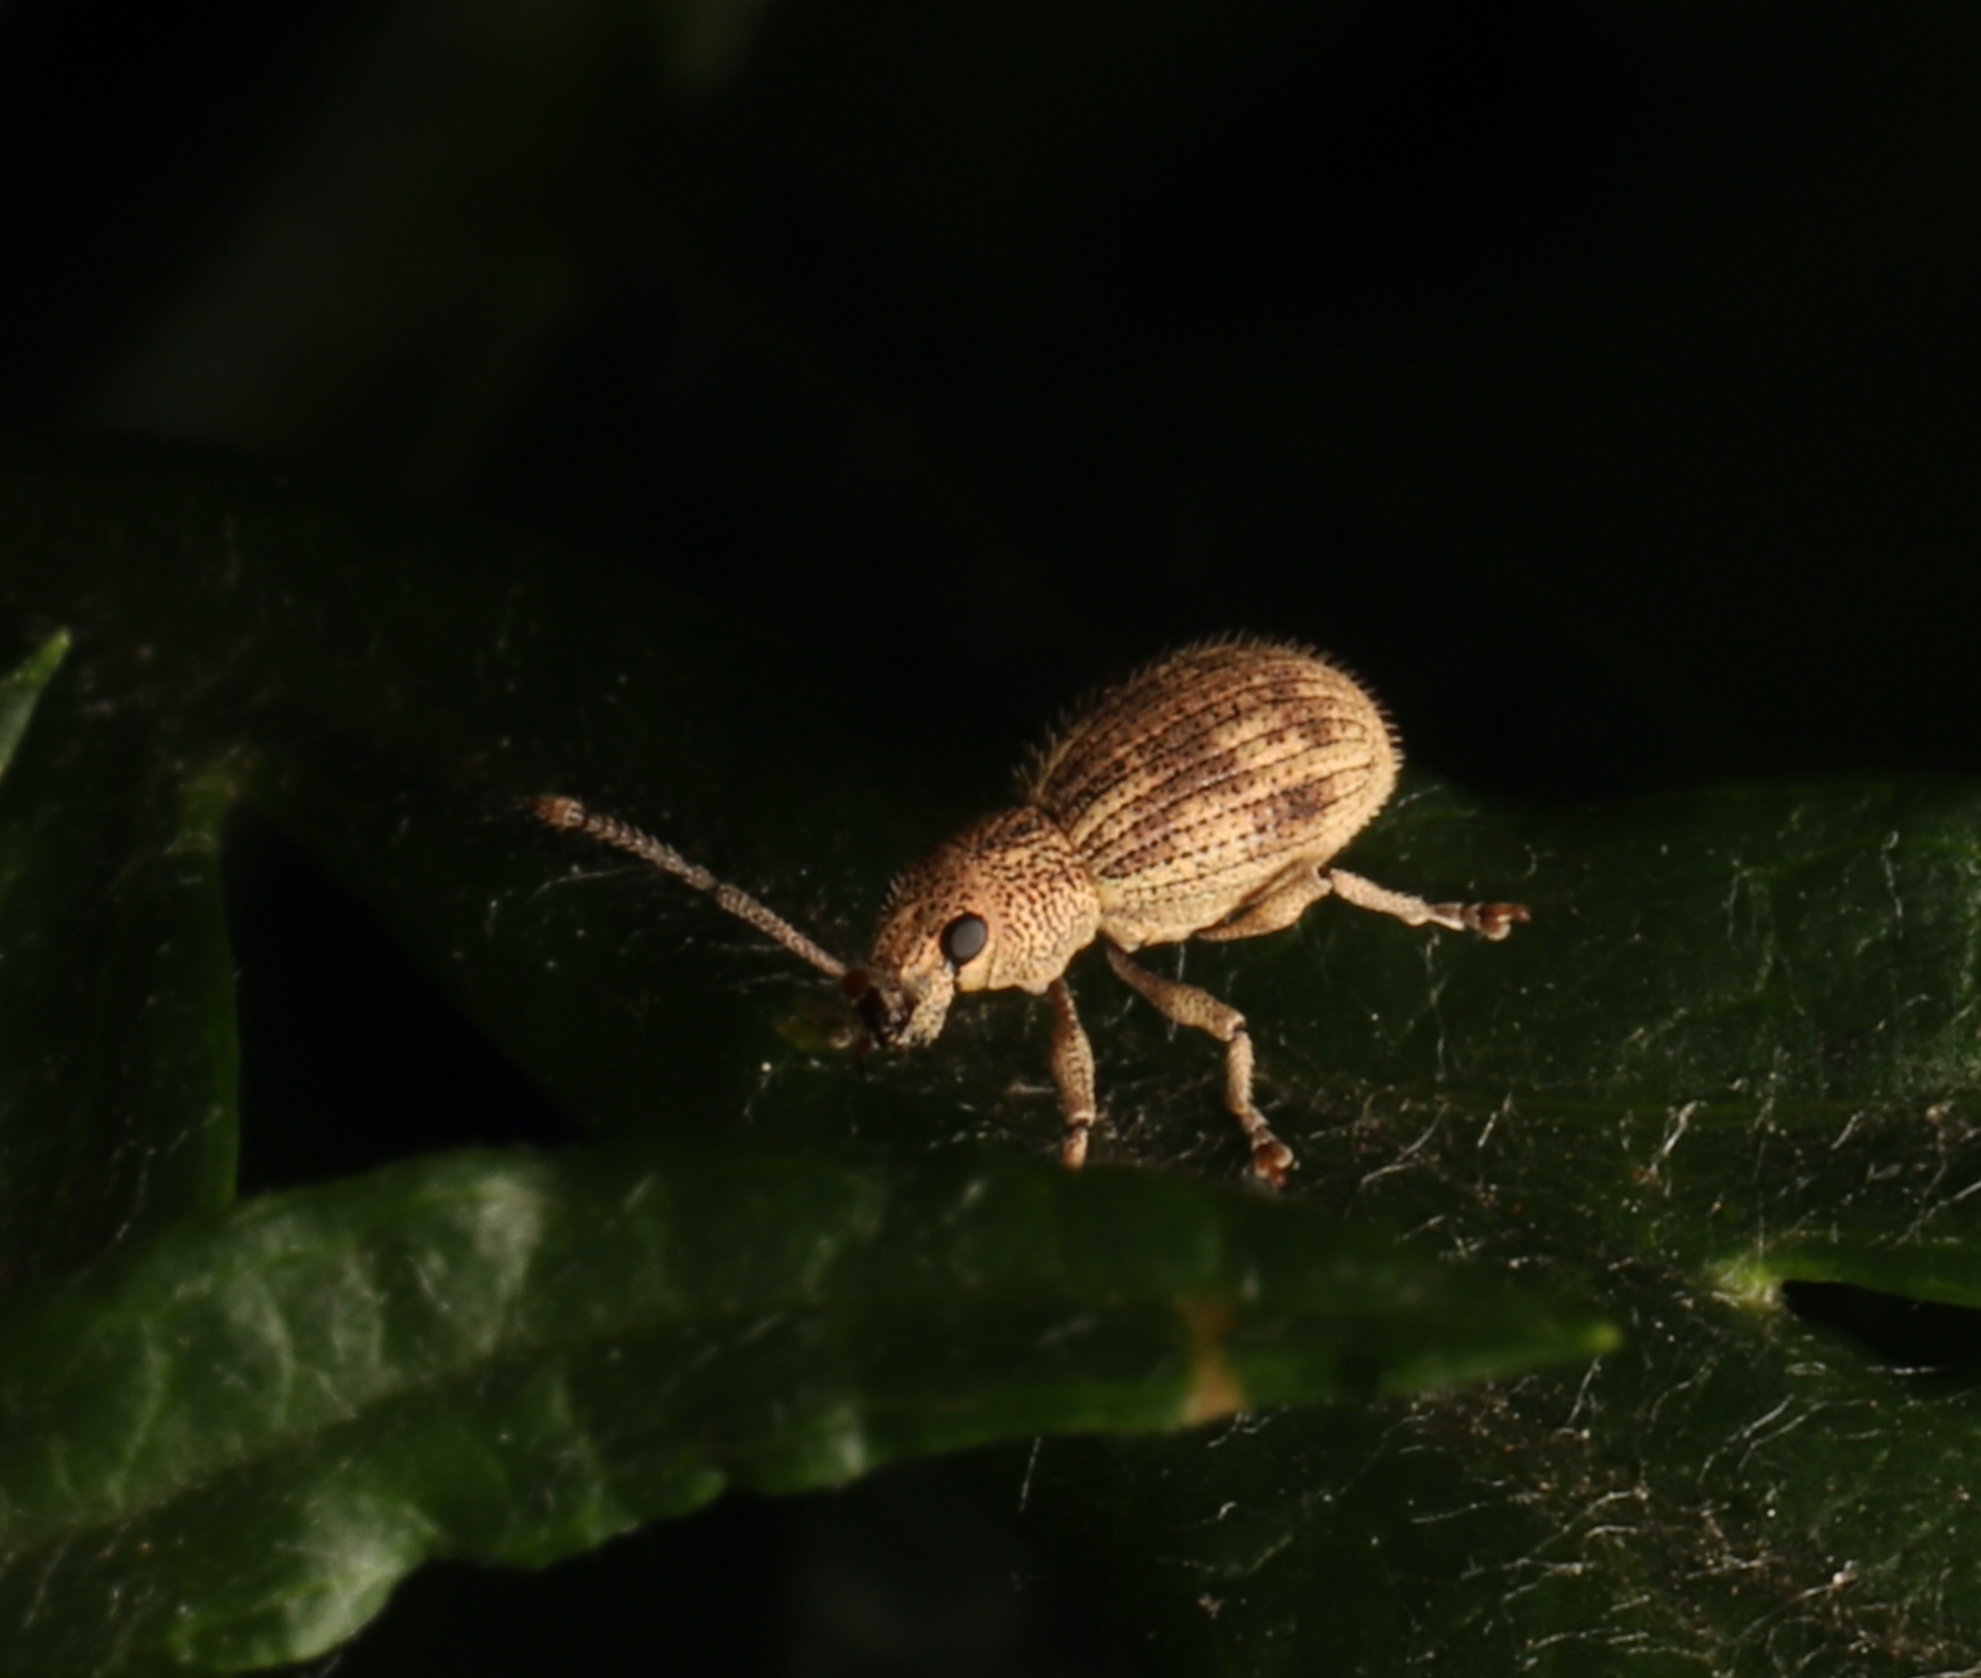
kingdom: Animalia
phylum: Arthropoda
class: Insecta
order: Coleoptera
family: Curculionidae
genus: Calomycterus
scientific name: Calomycterus setarius
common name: Weevil
